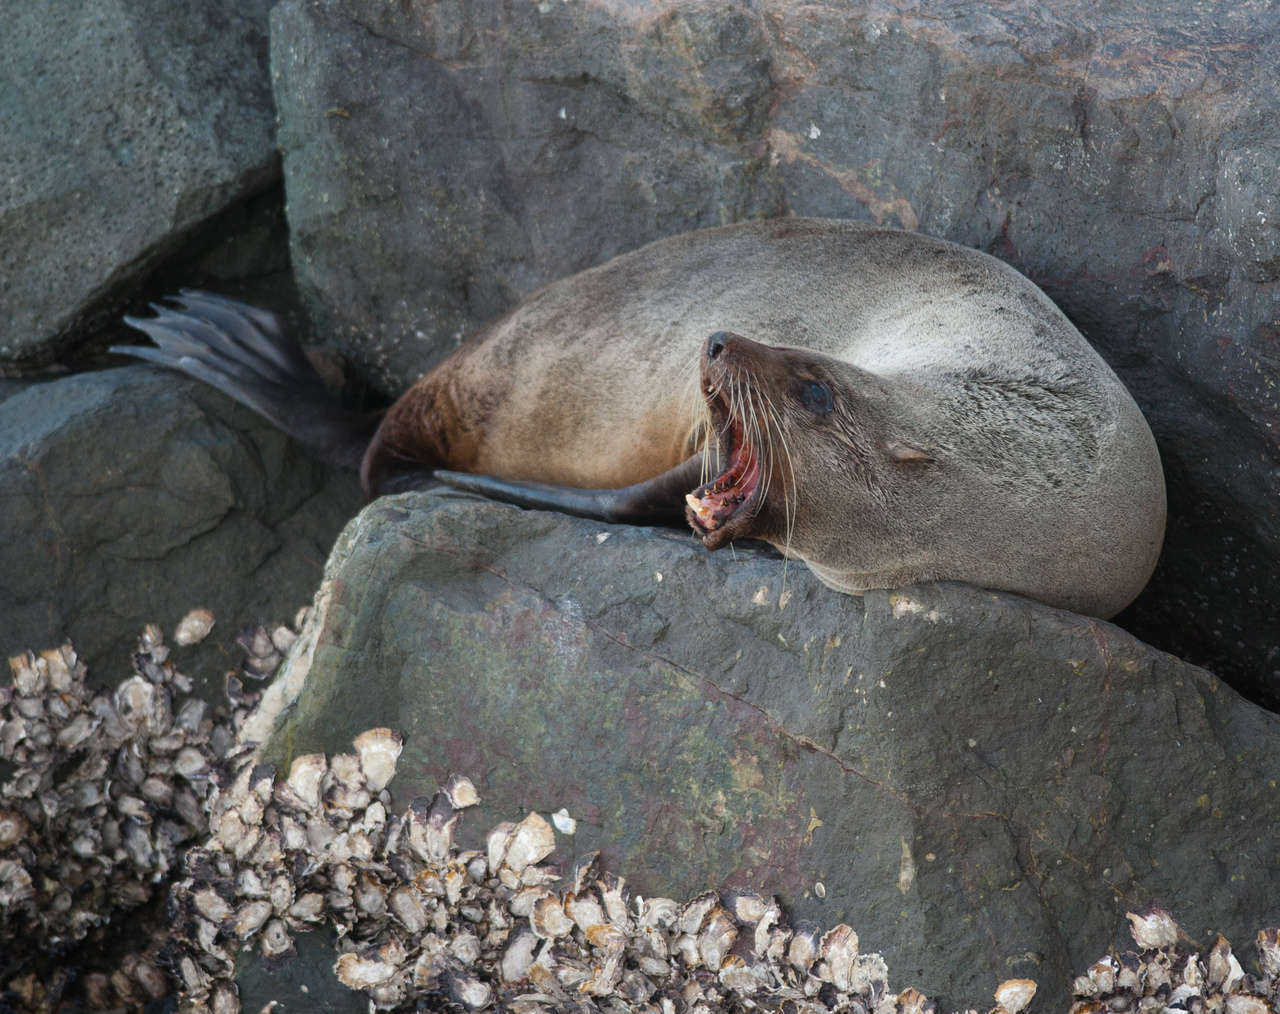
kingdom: Animalia
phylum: Chordata
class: Mammalia
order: Carnivora
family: Otariidae
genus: Arctocephalus
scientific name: Arctocephalus forsteri
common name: New zealand fur seal
